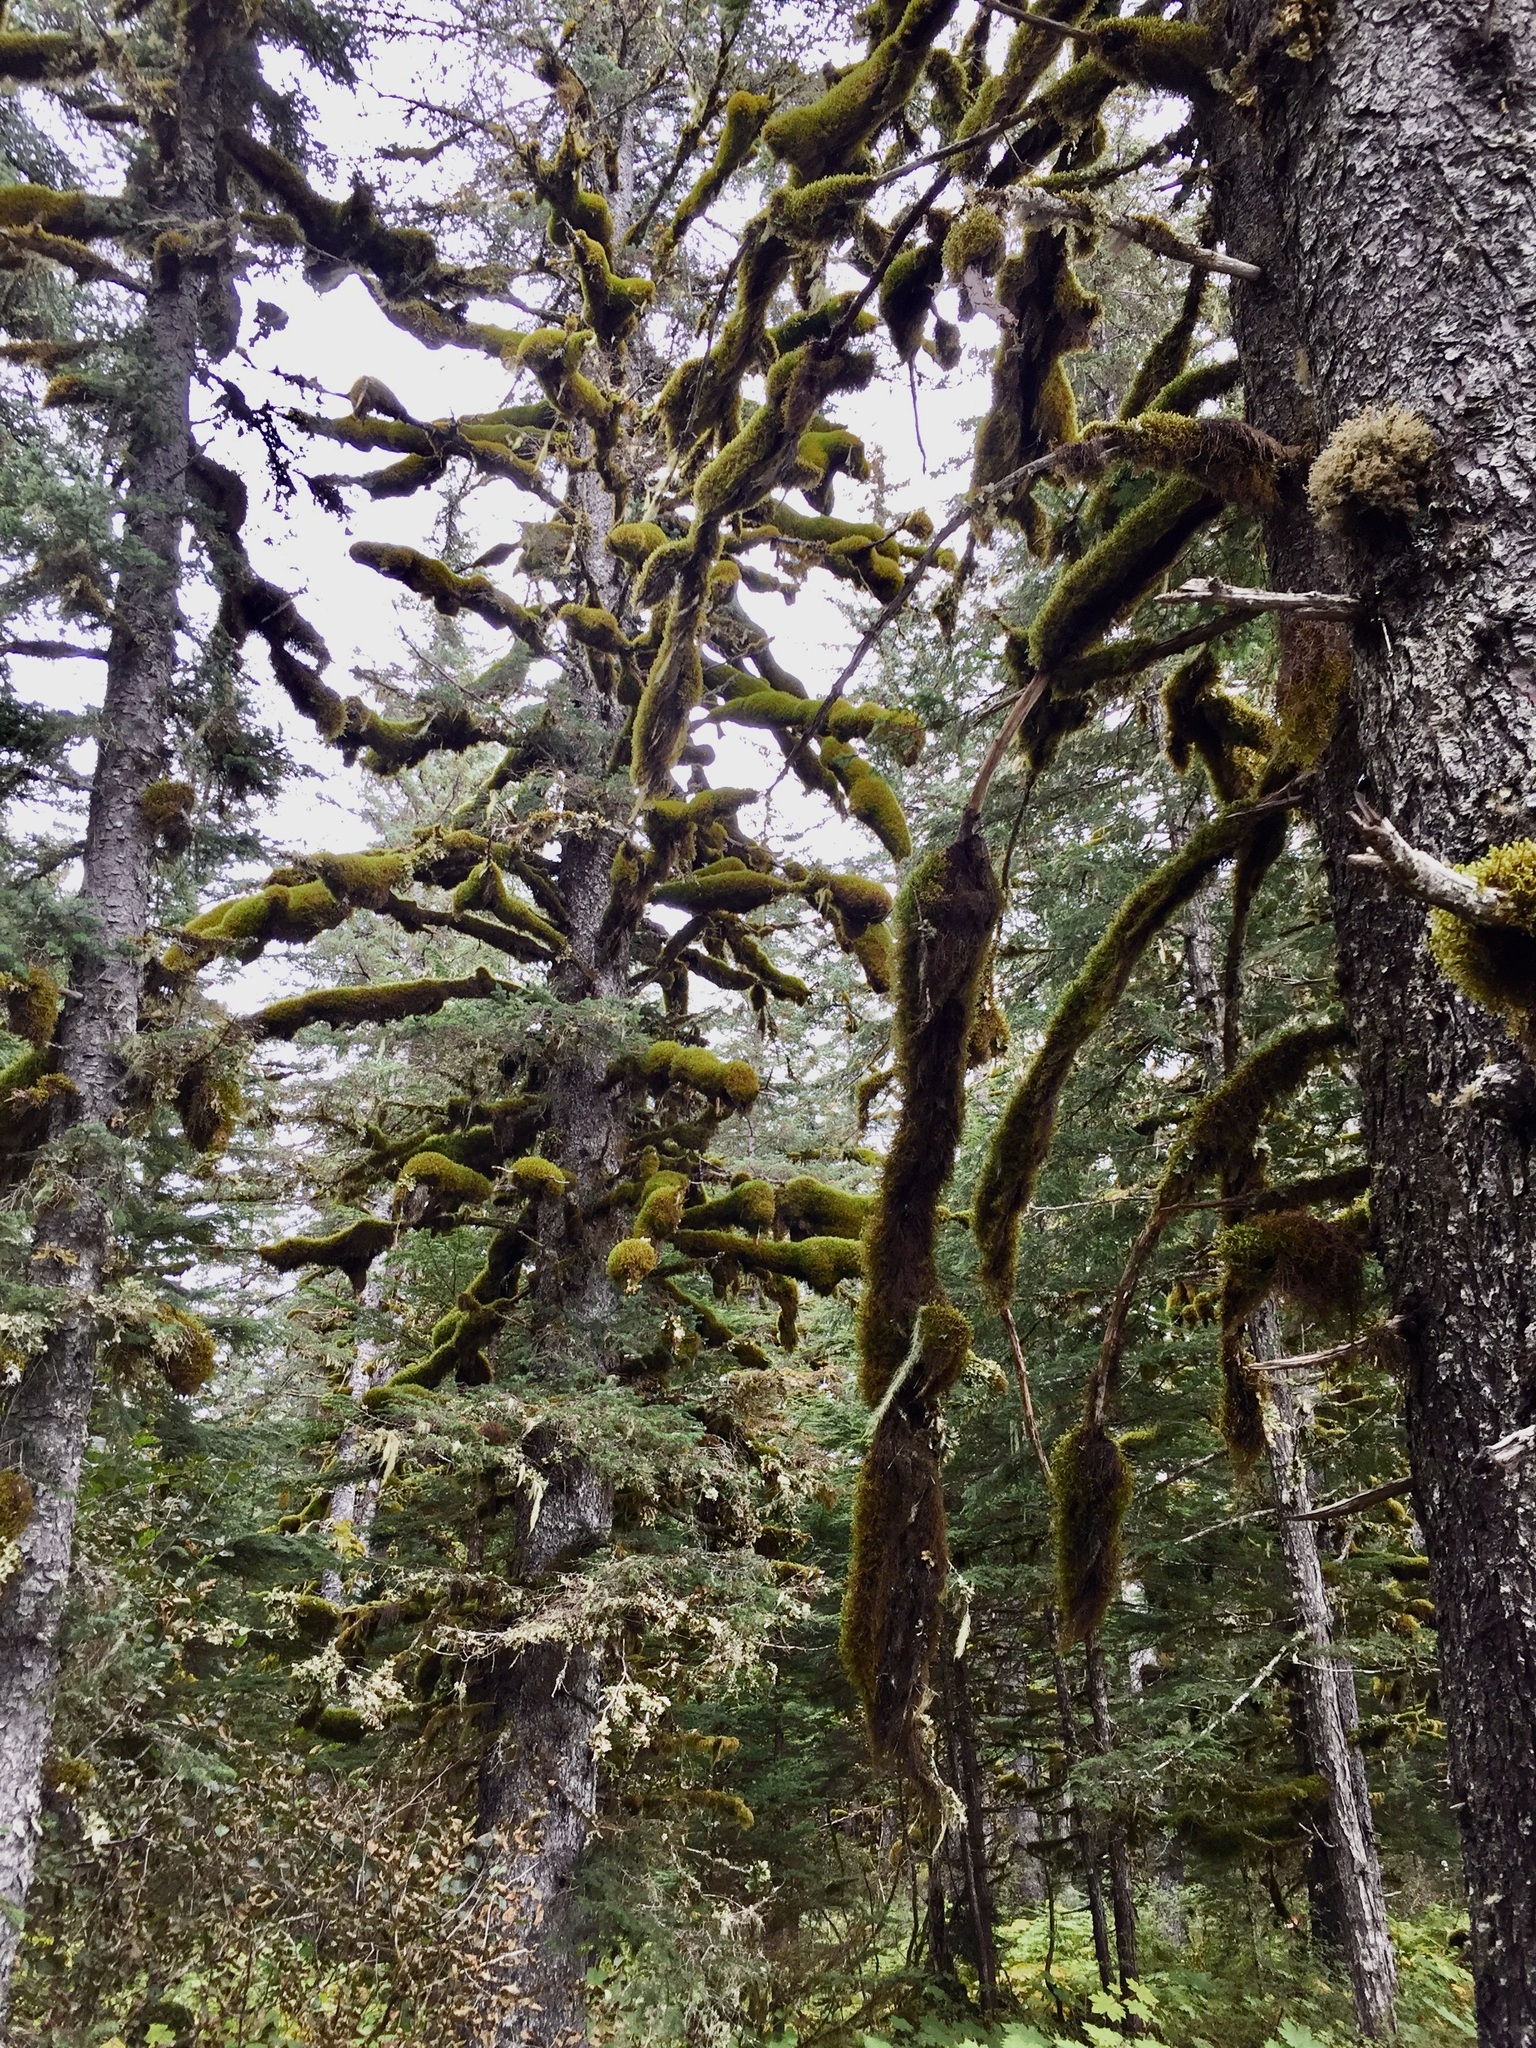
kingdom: Plantae
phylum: Bryophyta
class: Bryopsida
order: Hypnales
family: Antitrichiaceae
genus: Antitrichia
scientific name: Antitrichia curtipendula
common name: Pendulous wing-moss
